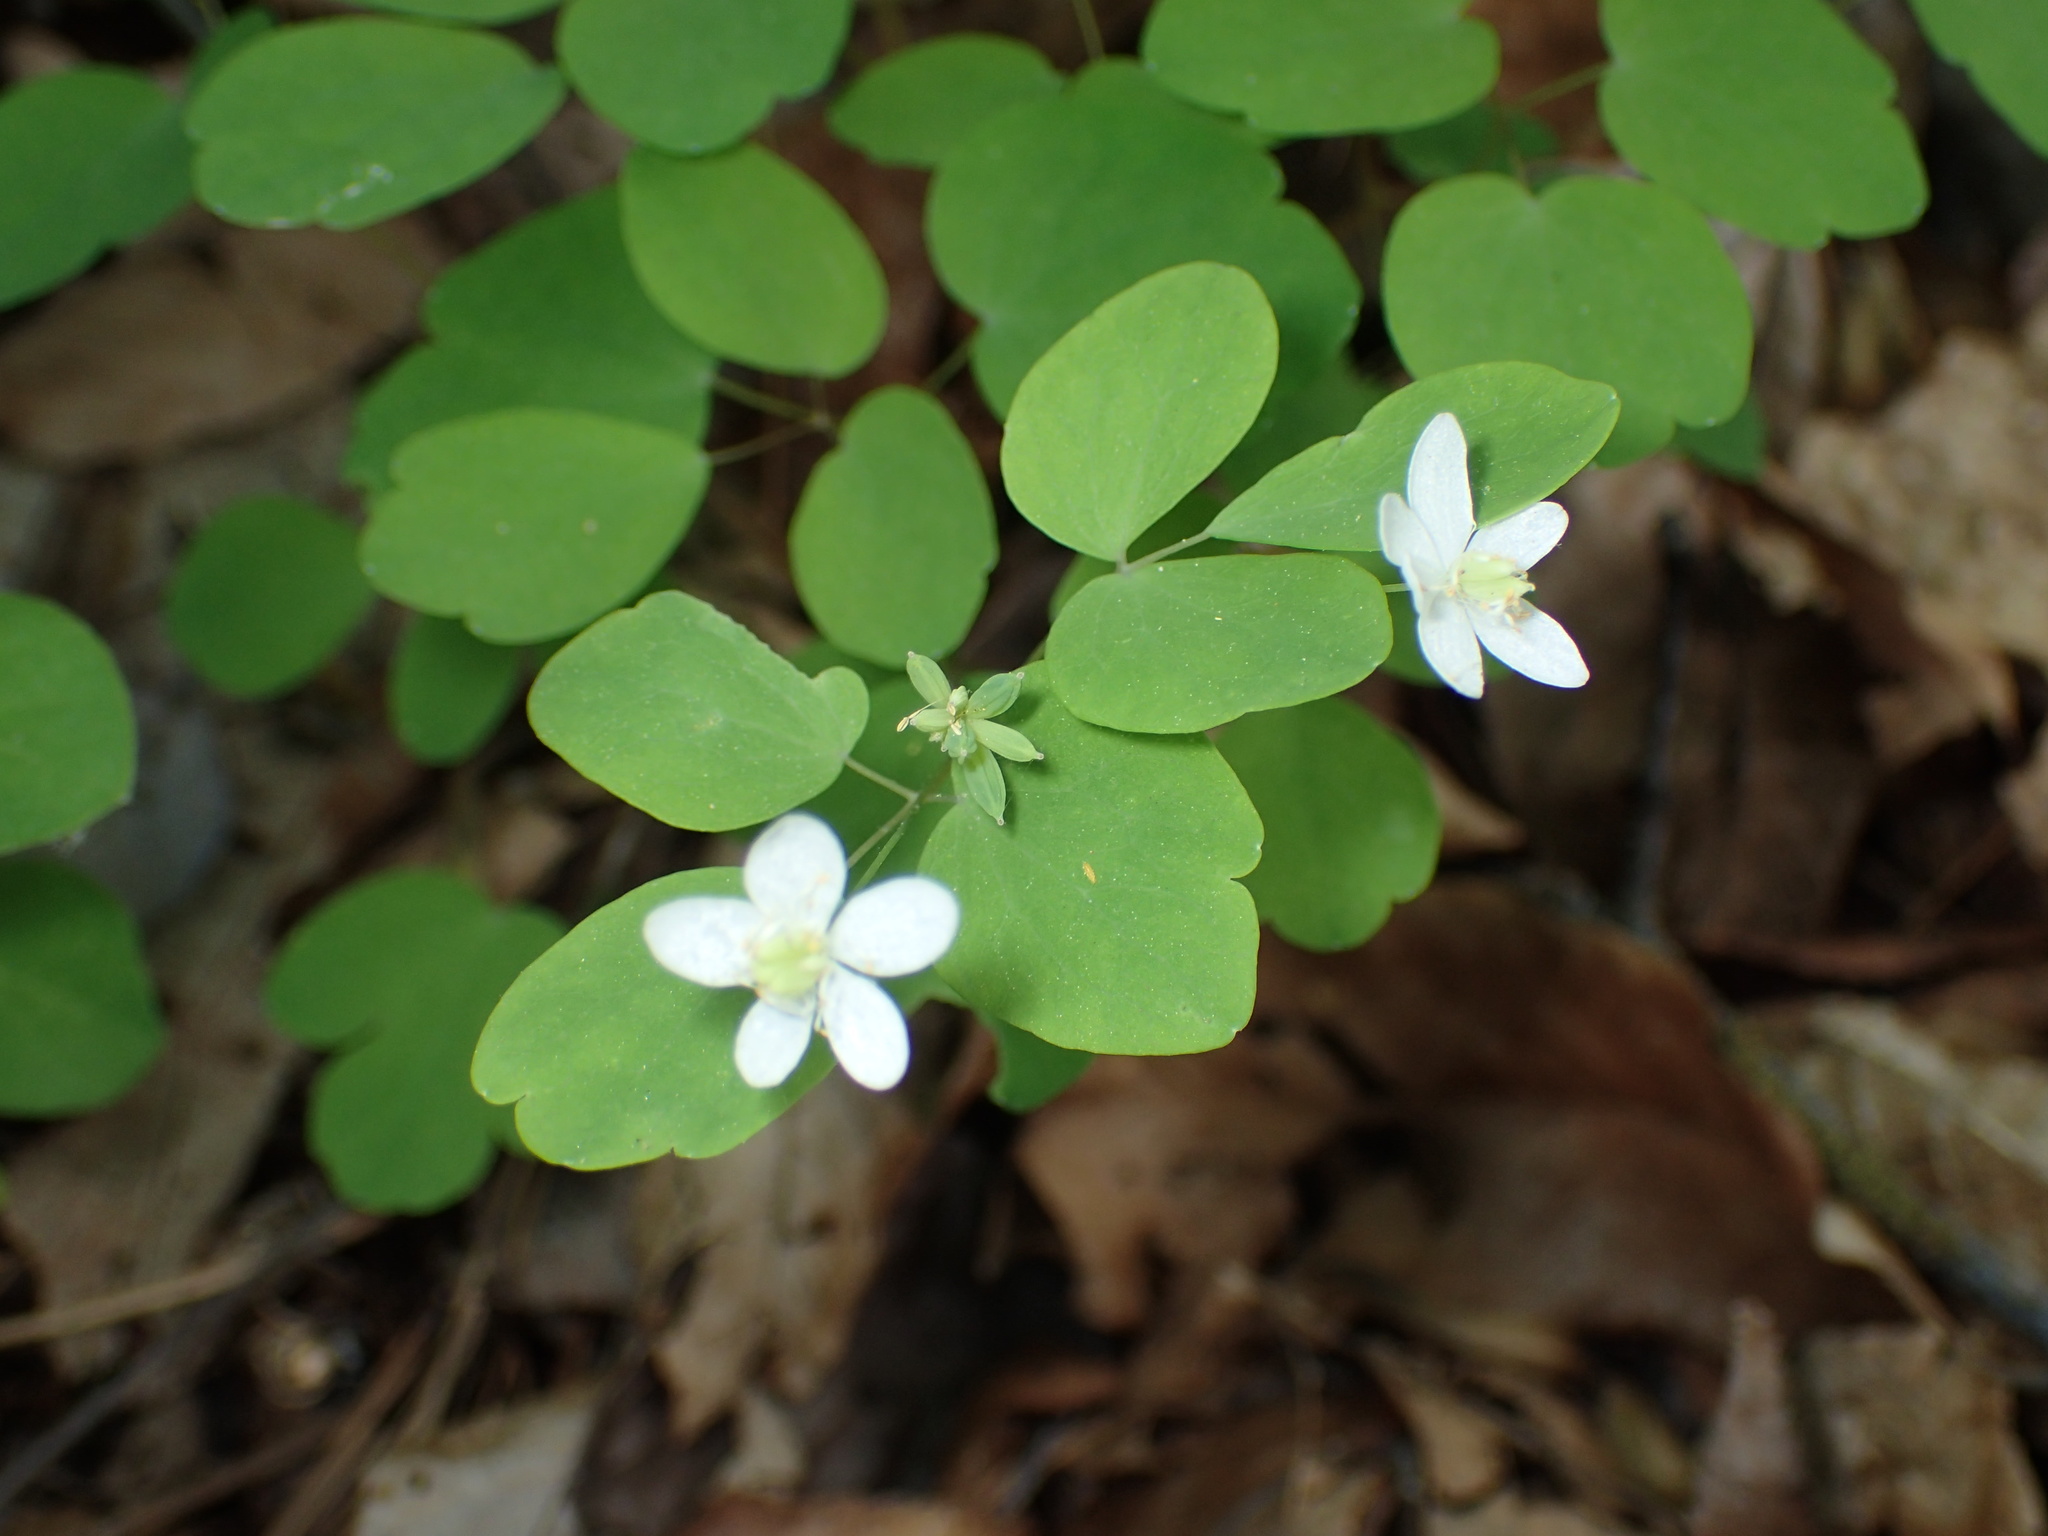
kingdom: Plantae
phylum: Tracheophyta
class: Magnoliopsida
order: Ranunculales
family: Ranunculaceae
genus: Thalictrum
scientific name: Thalictrum thalictroides
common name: Rue-anemone
